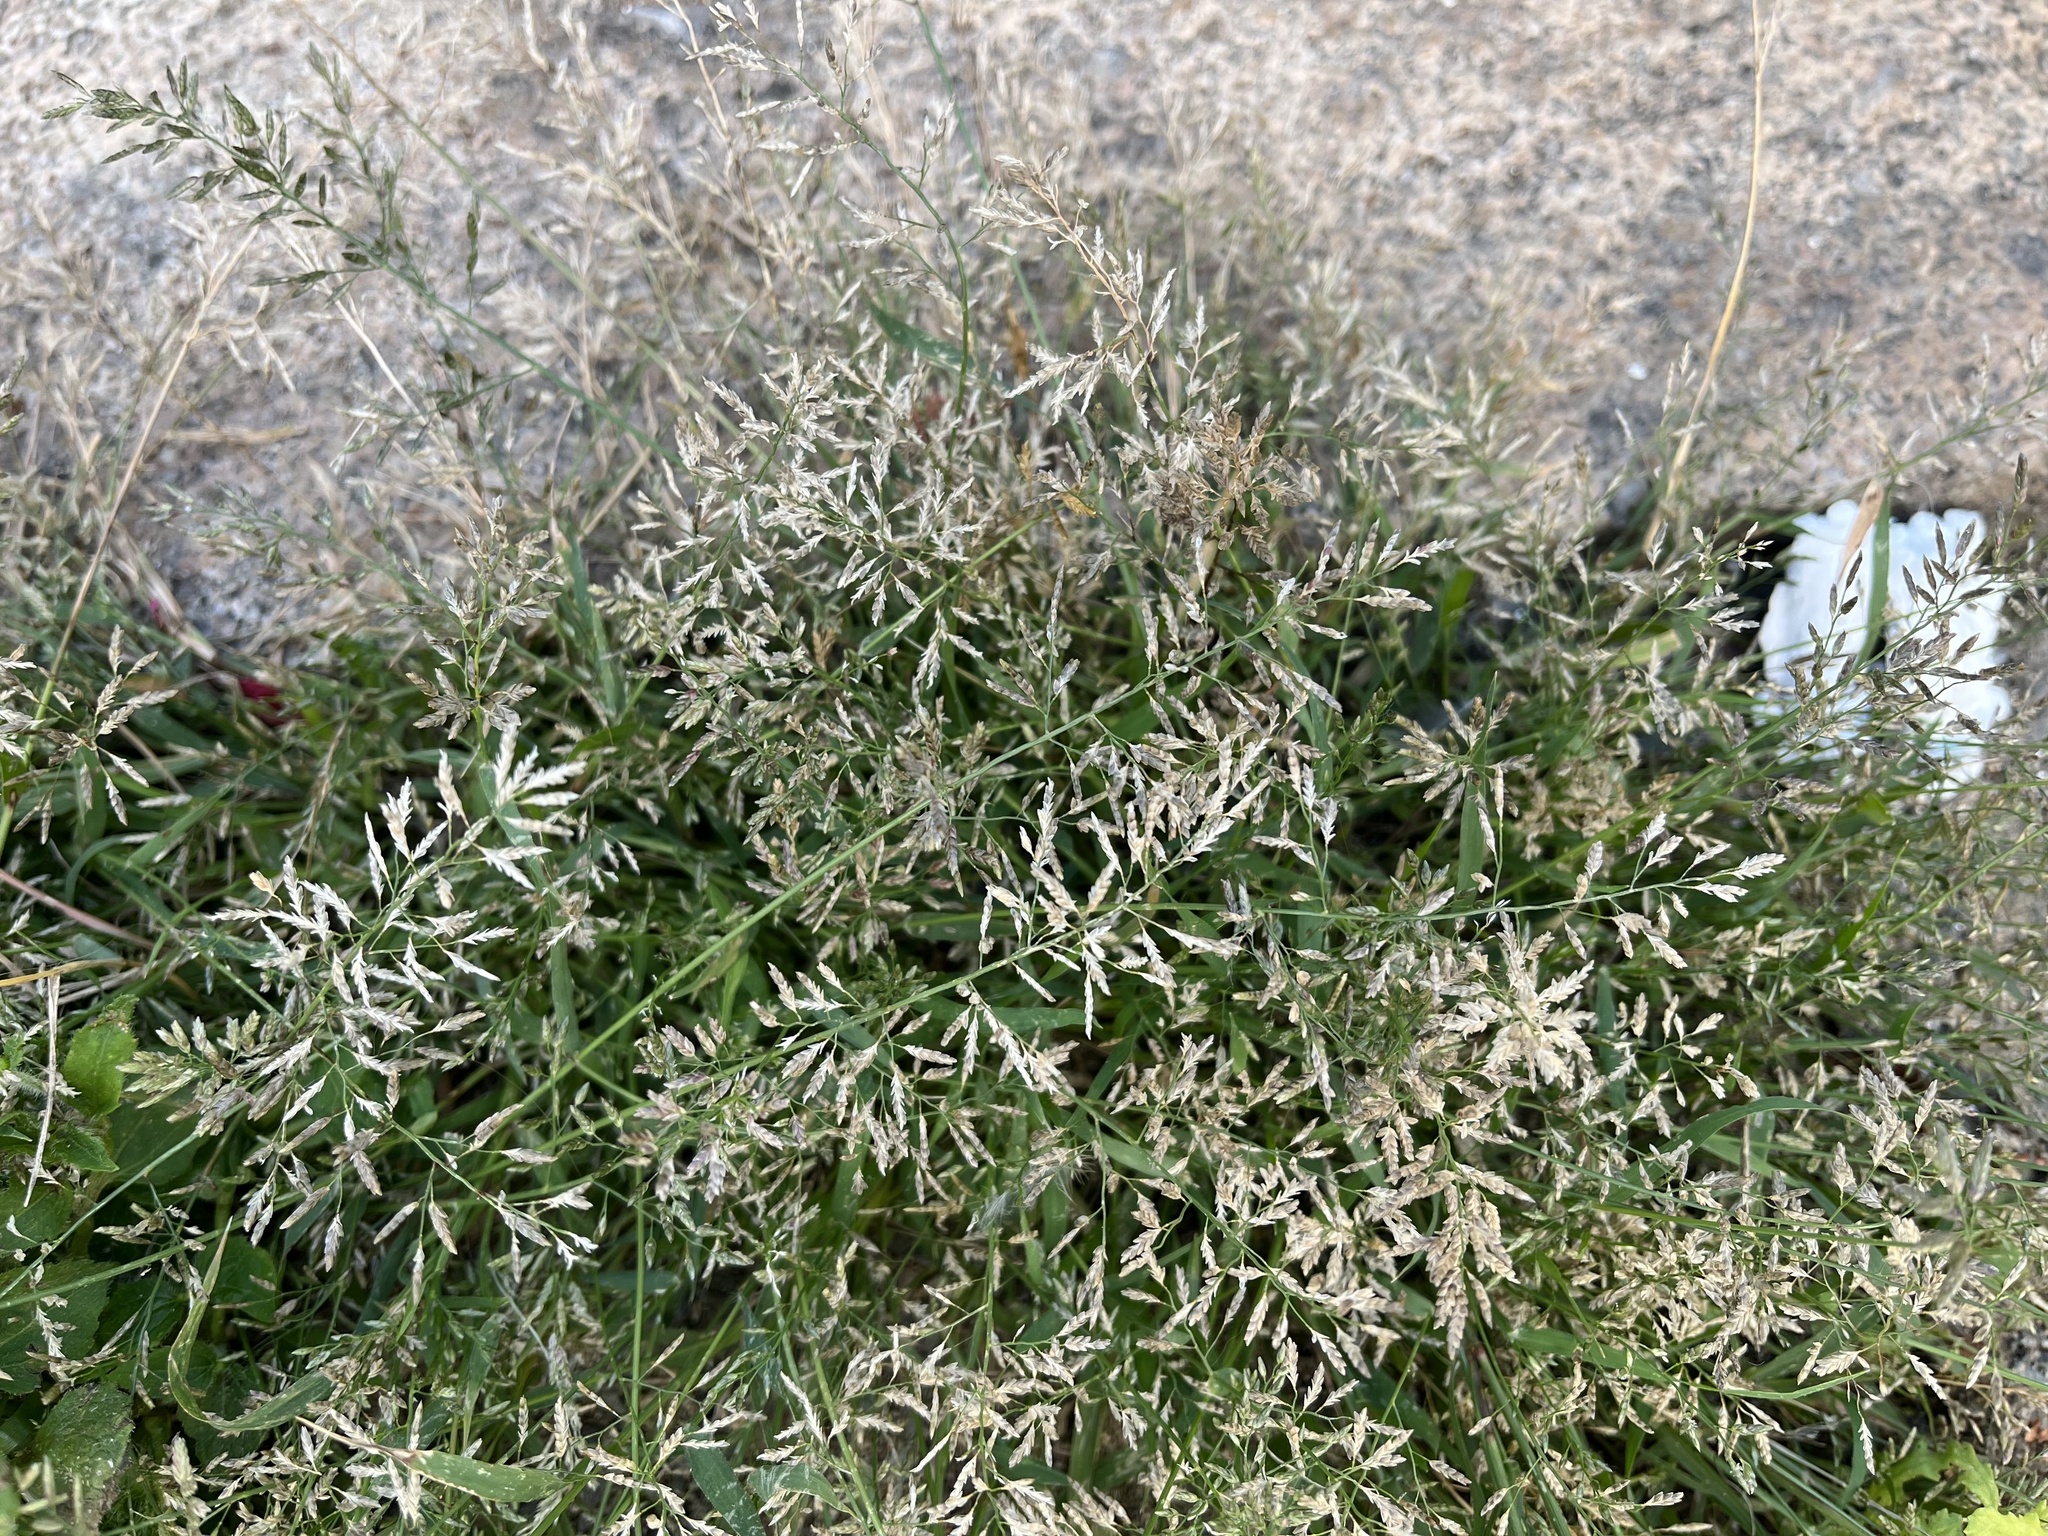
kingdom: Plantae
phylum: Tracheophyta
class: Liliopsida
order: Poales
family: Poaceae
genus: Eragrostis
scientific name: Eragrostis minor
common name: Small love-grass
